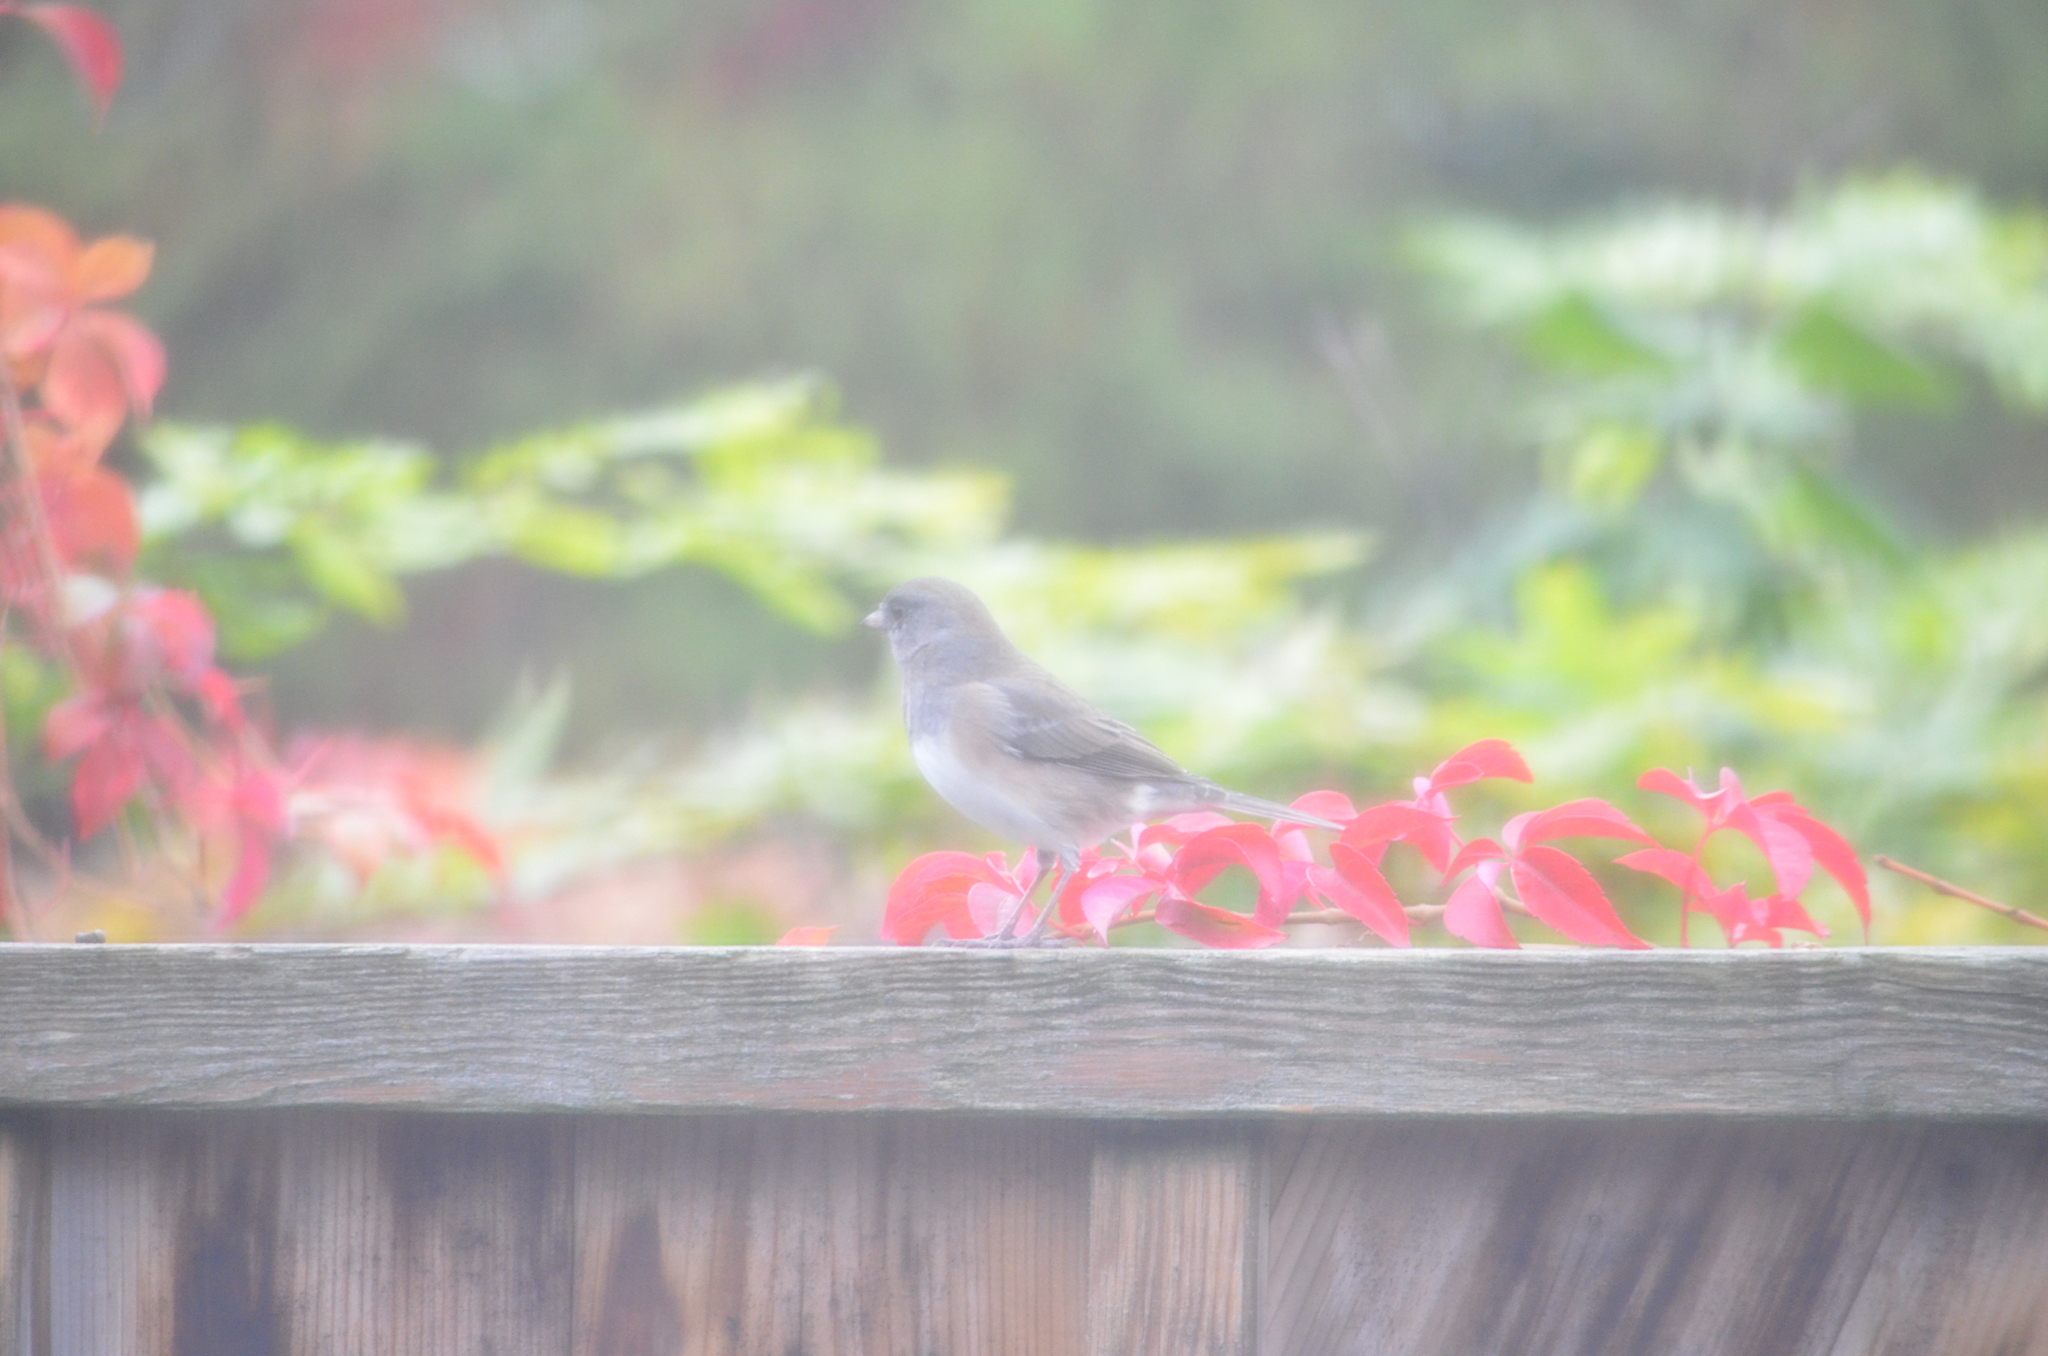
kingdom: Animalia
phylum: Chordata
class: Aves
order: Passeriformes
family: Passerellidae
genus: Junco
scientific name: Junco hyemalis
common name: Dark-eyed junco
